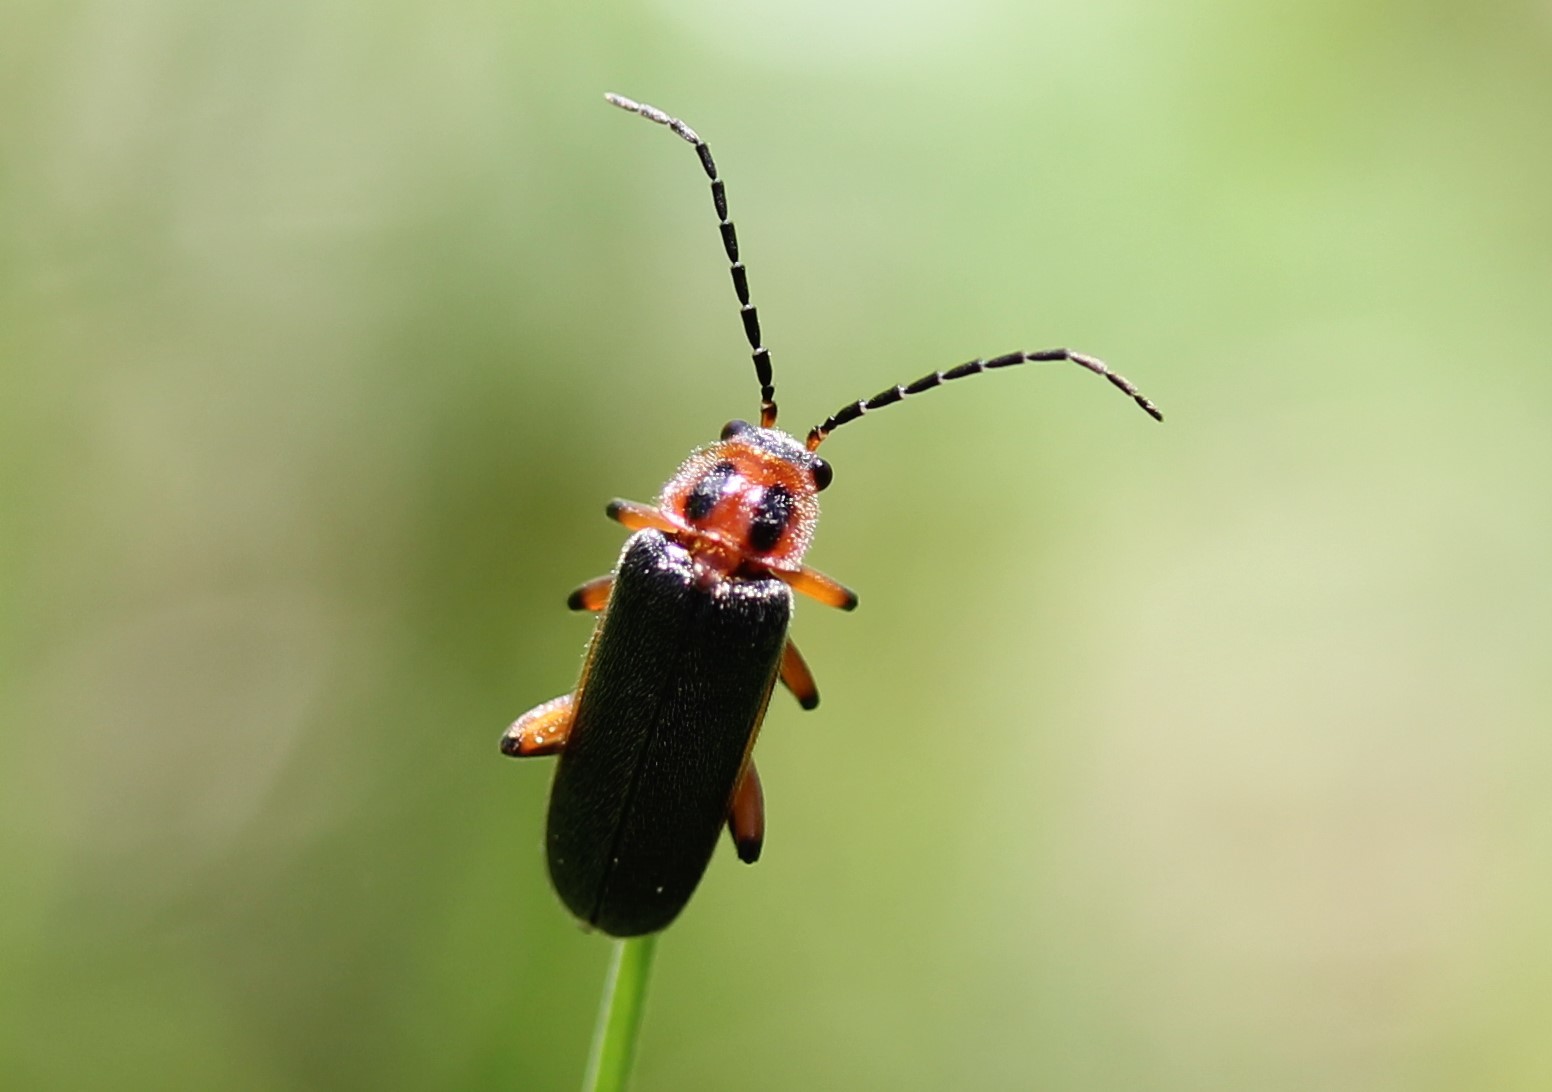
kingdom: Animalia
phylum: Arthropoda
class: Insecta
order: Coleoptera
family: Cantharidae
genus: Atalantycha
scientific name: Atalantycha bilineata
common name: Two-lined leatherwing
